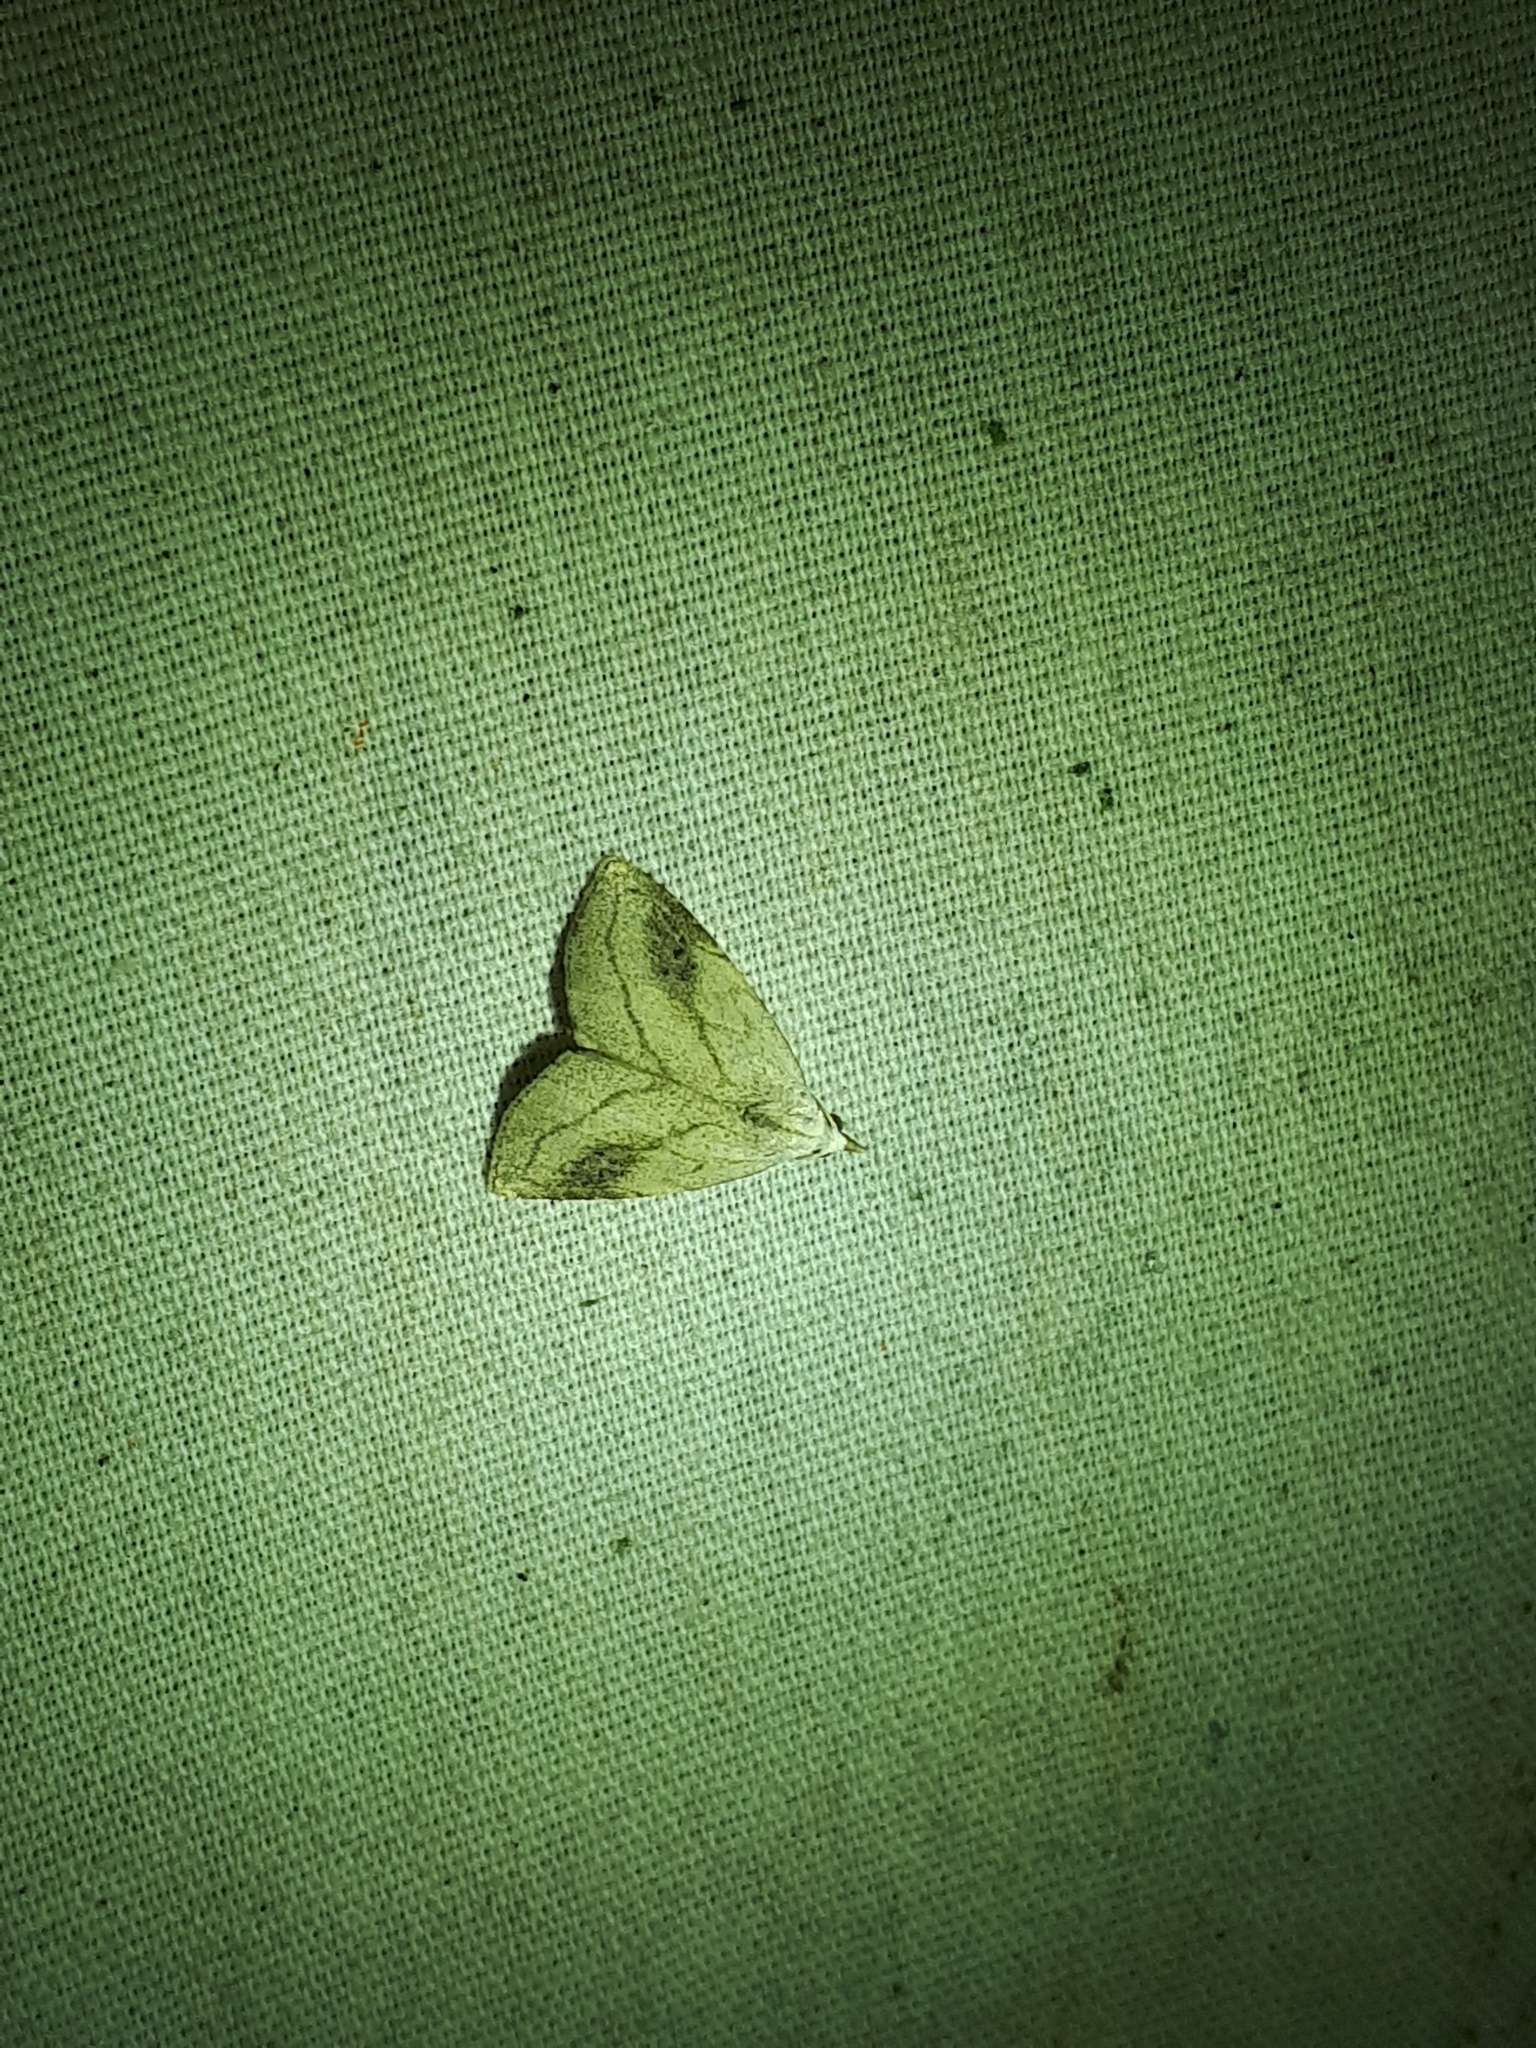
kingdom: Animalia
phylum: Arthropoda
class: Insecta
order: Lepidoptera
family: Erebidae
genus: Rivula
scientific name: Rivula propinqualis
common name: Spotted grass moth
